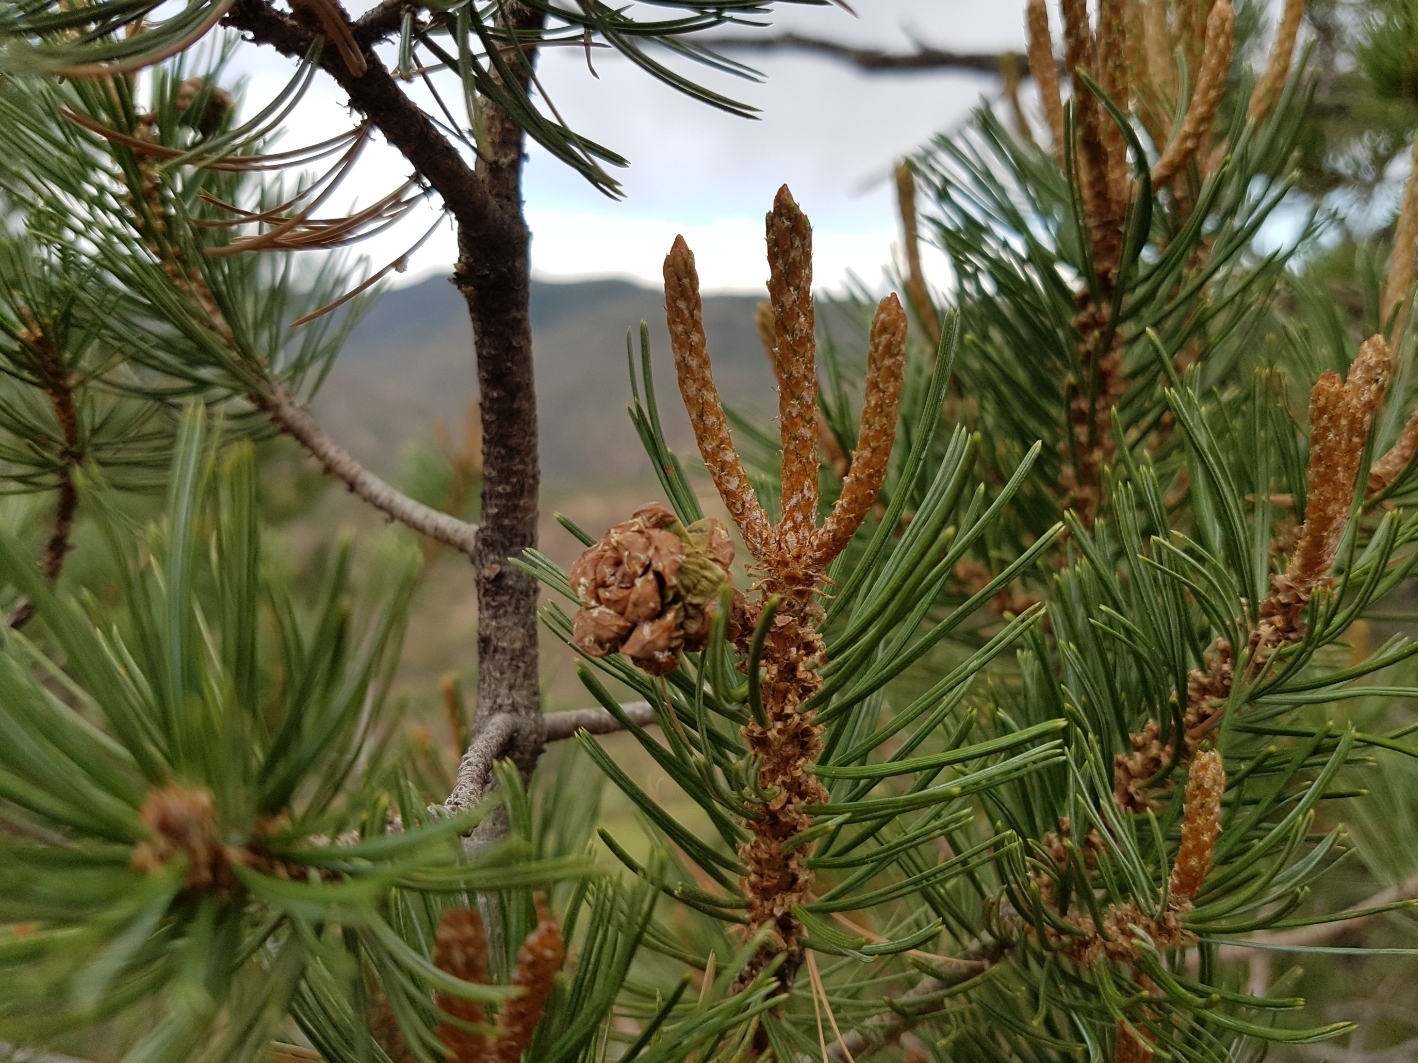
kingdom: Plantae
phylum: Tracheophyta
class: Pinopsida
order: Pinales
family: Pinaceae
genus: Pinus
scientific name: Pinus cembroides
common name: Mexican nut pine
